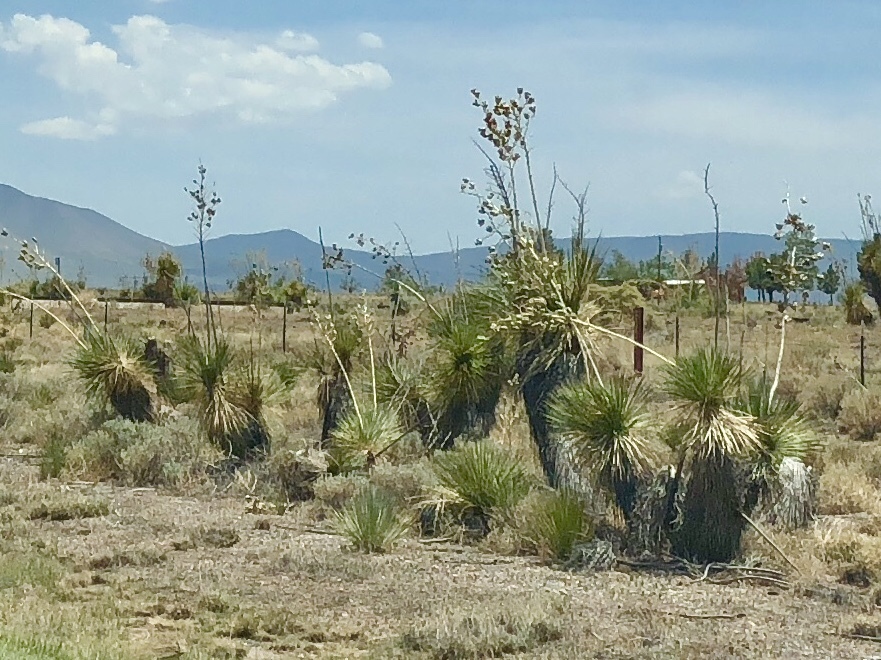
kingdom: Plantae
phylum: Tracheophyta
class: Liliopsida
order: Asparagales
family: Asparagaceae
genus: Yucca
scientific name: Yucca elata
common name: Palmella
